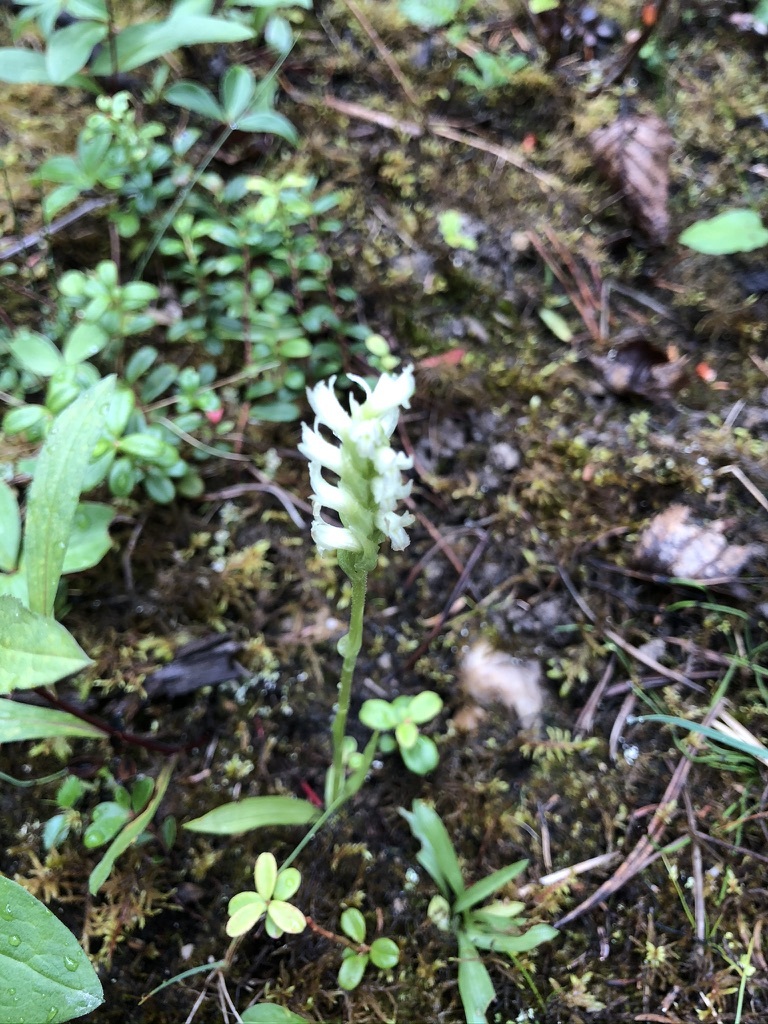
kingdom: Plantae
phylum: Tracheophyta
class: Liliopsida
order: Asparagales
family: Orchidaceae
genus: Spiranthes
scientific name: Spiranthes romanzoffiana
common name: Irish lady's-tresses
